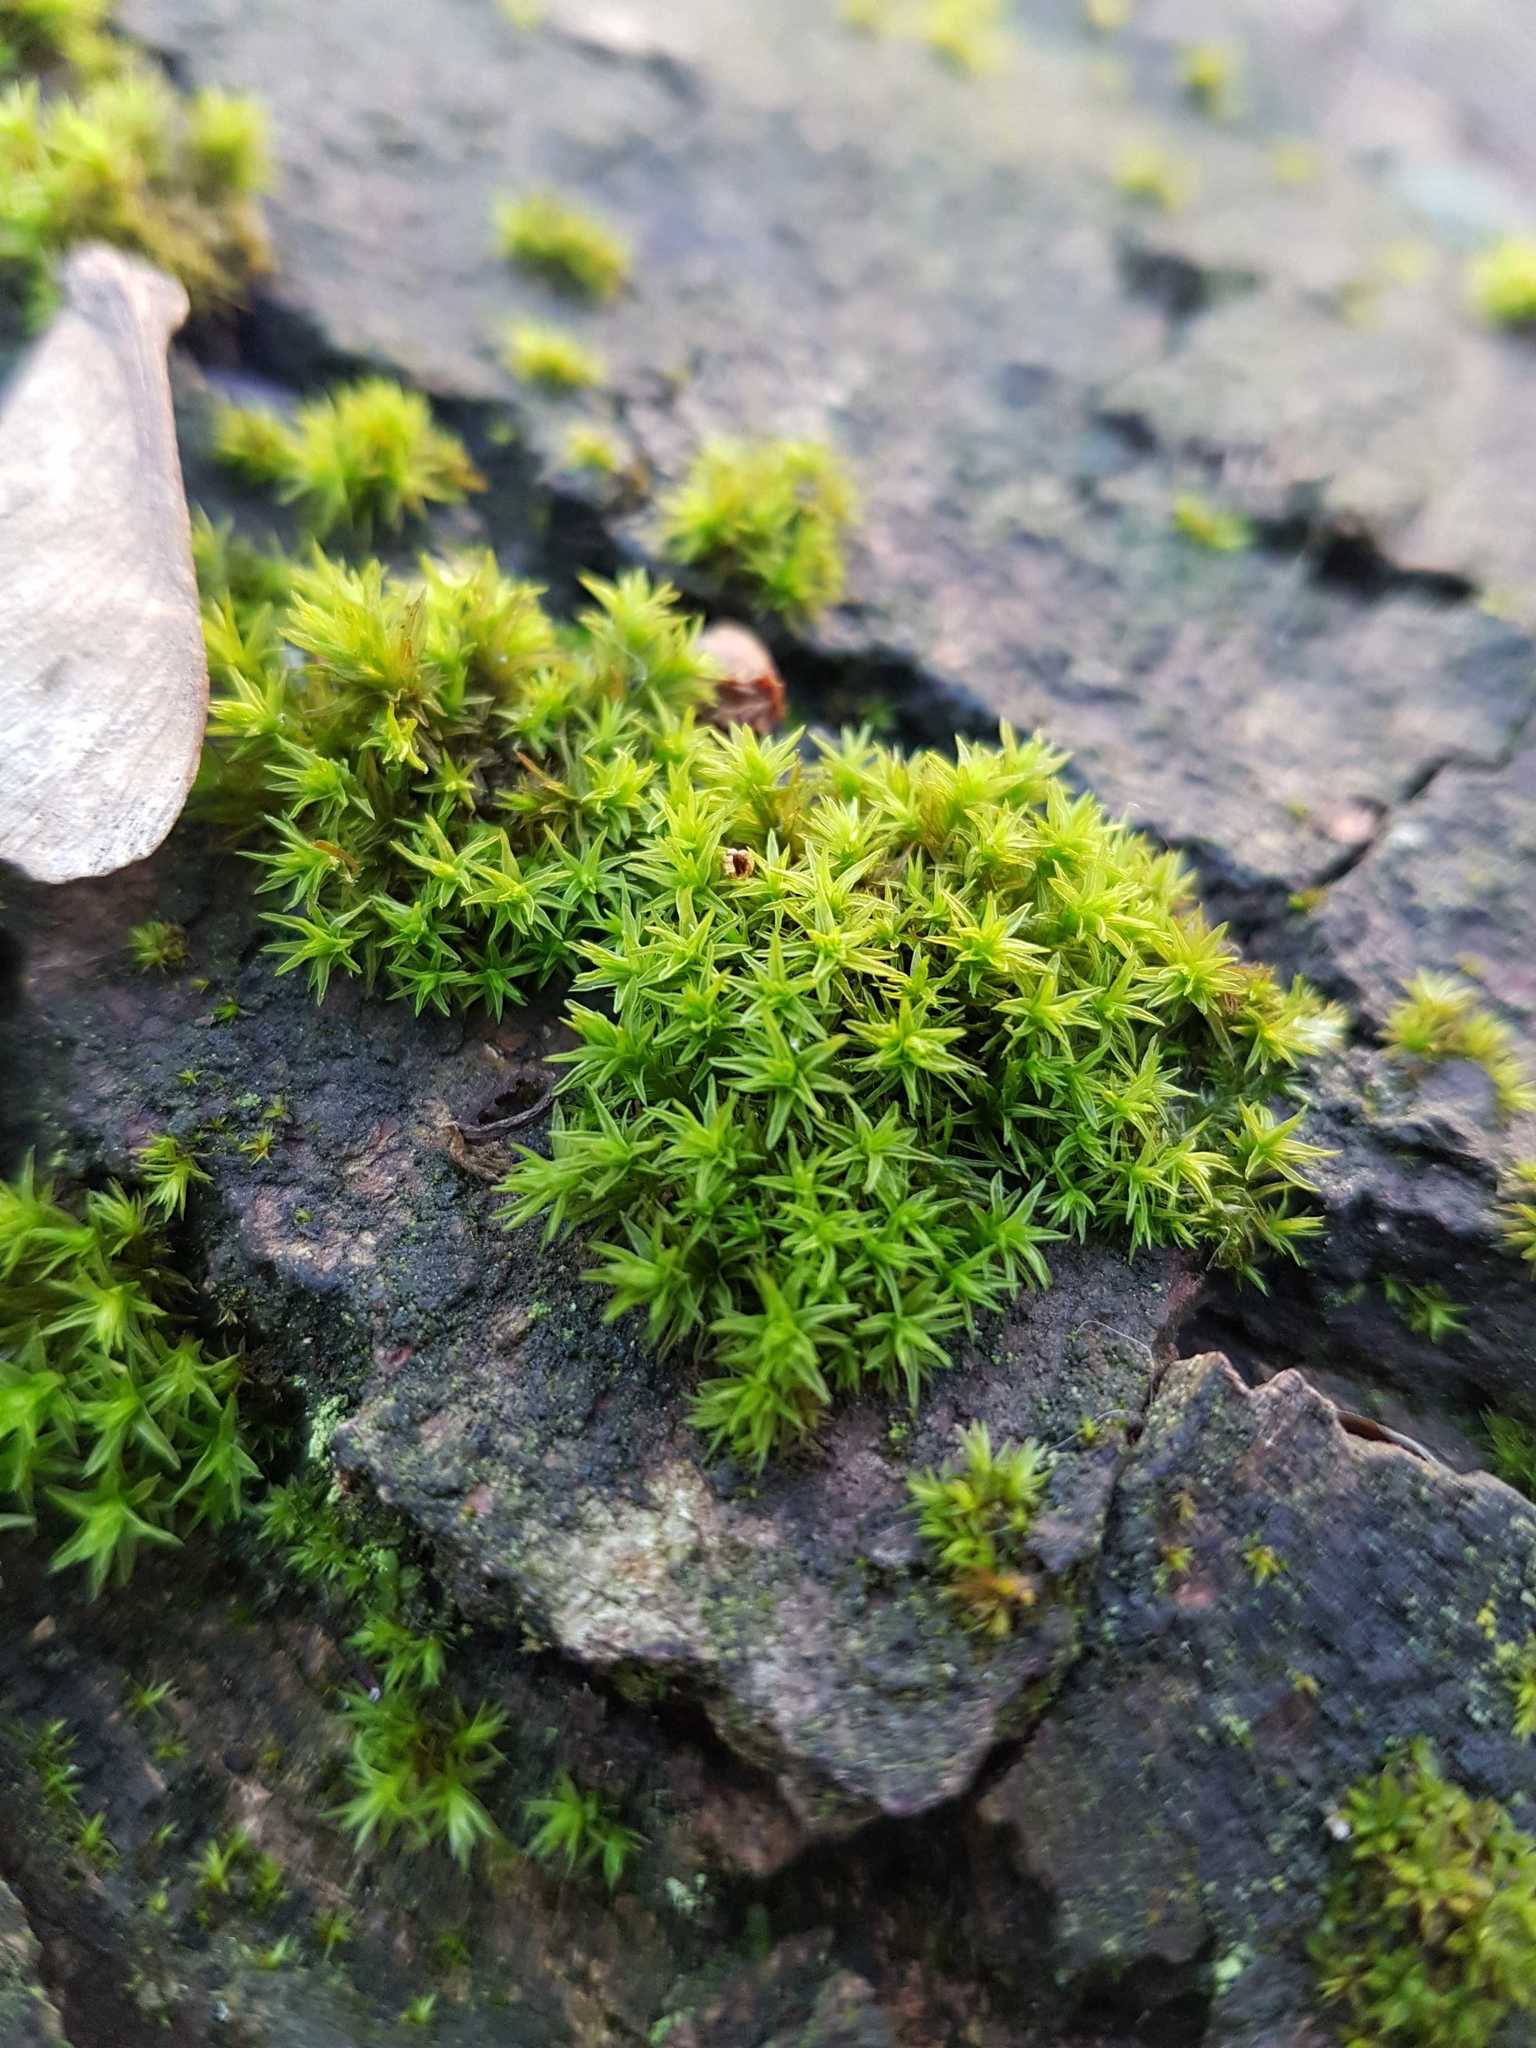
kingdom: Plantae
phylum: Bryophyta
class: Bryopsida
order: Orthotrichales
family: Orthotrichaceae
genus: Lewinskya
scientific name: Lewinskya affinis
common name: Wood bristle-moss
